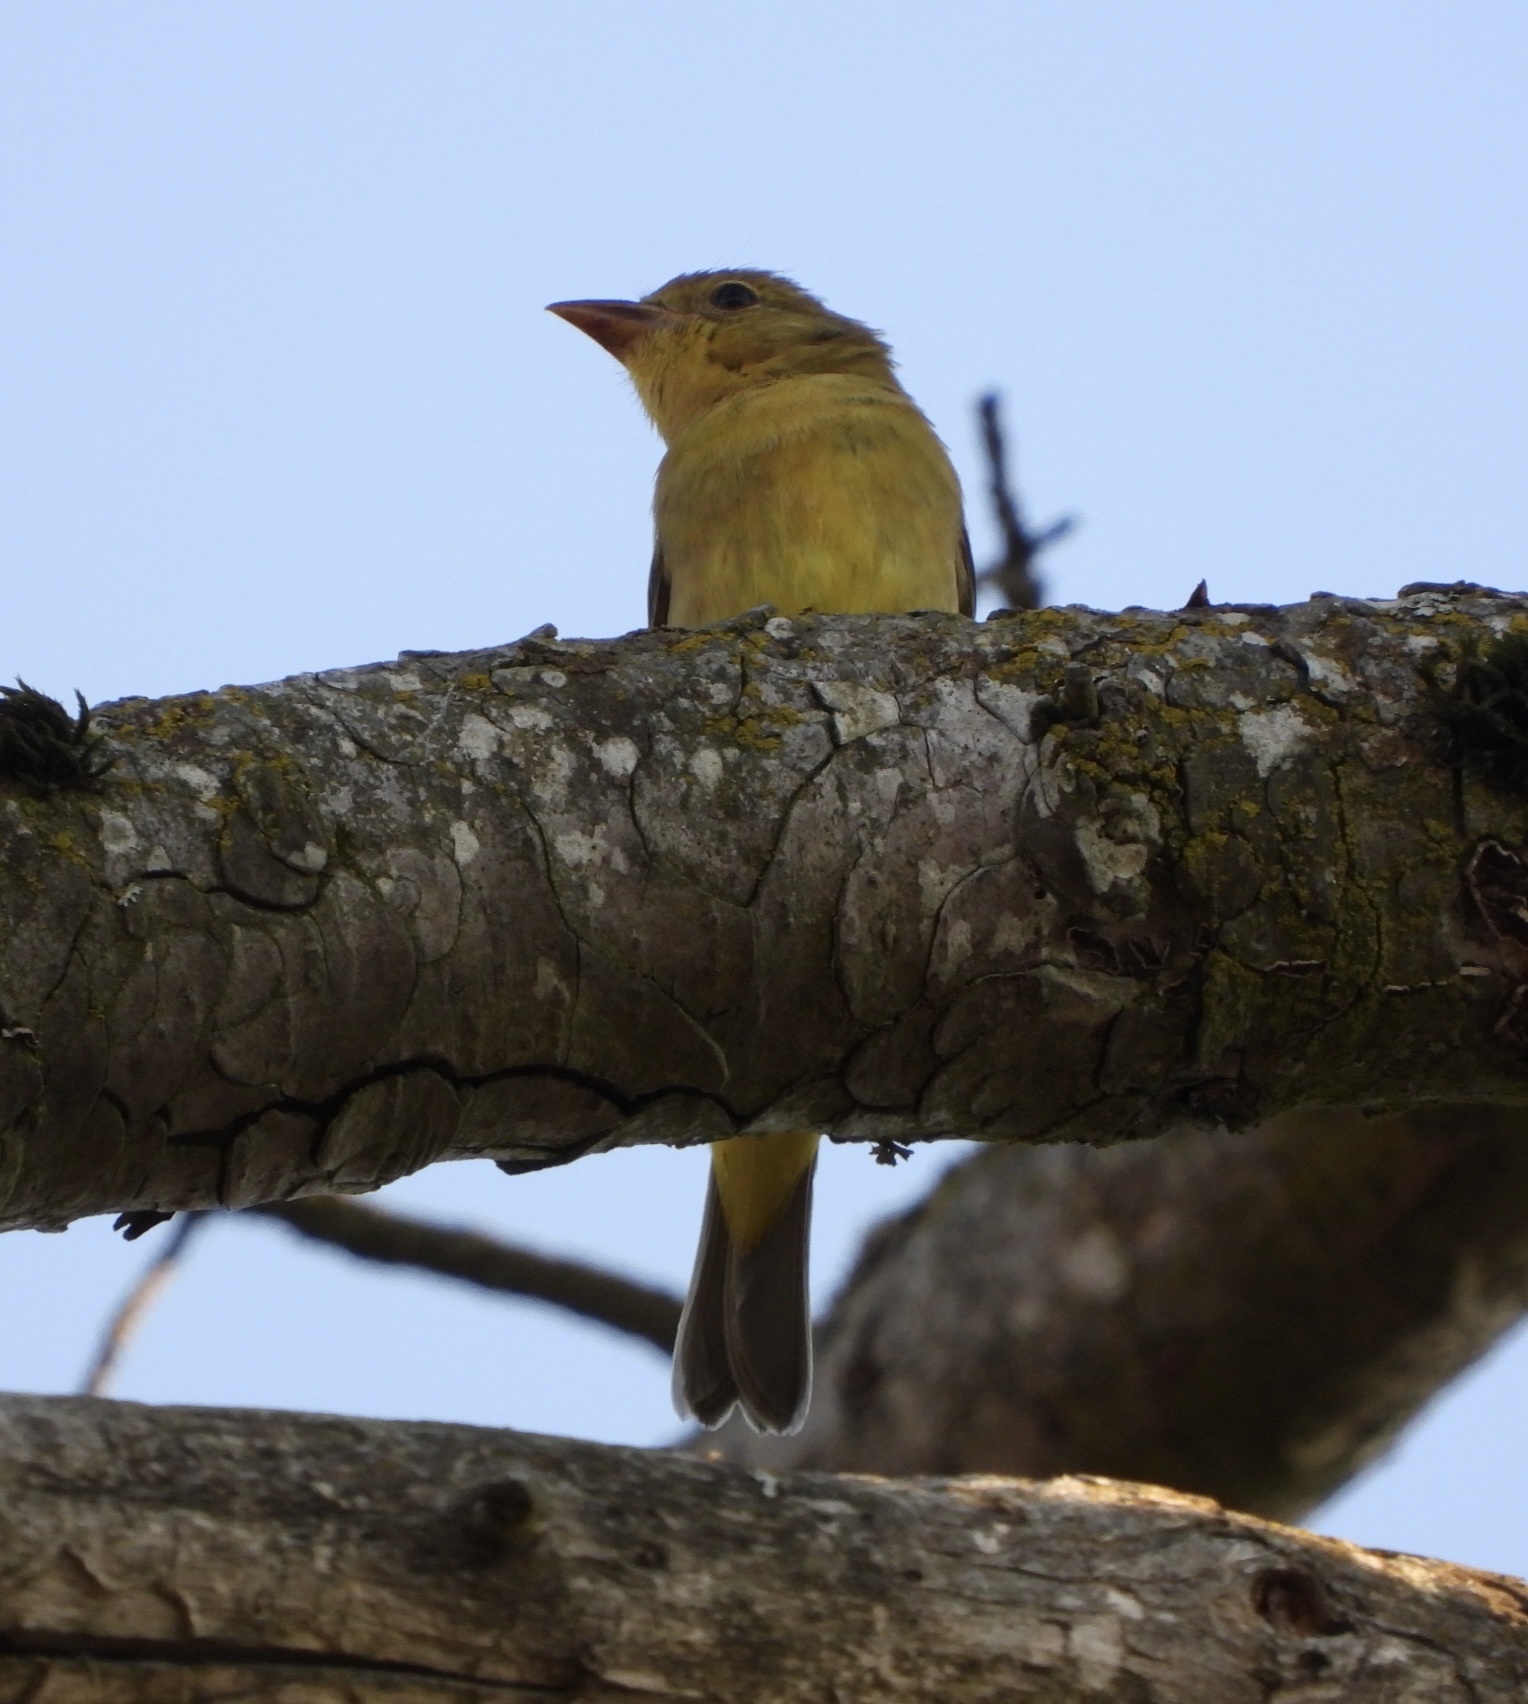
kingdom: Animalia
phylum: Chordata
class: Aves
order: Passeriformes
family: Cardinalidae
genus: Piranga
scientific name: Piranga ludoviciana
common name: Western tanager
